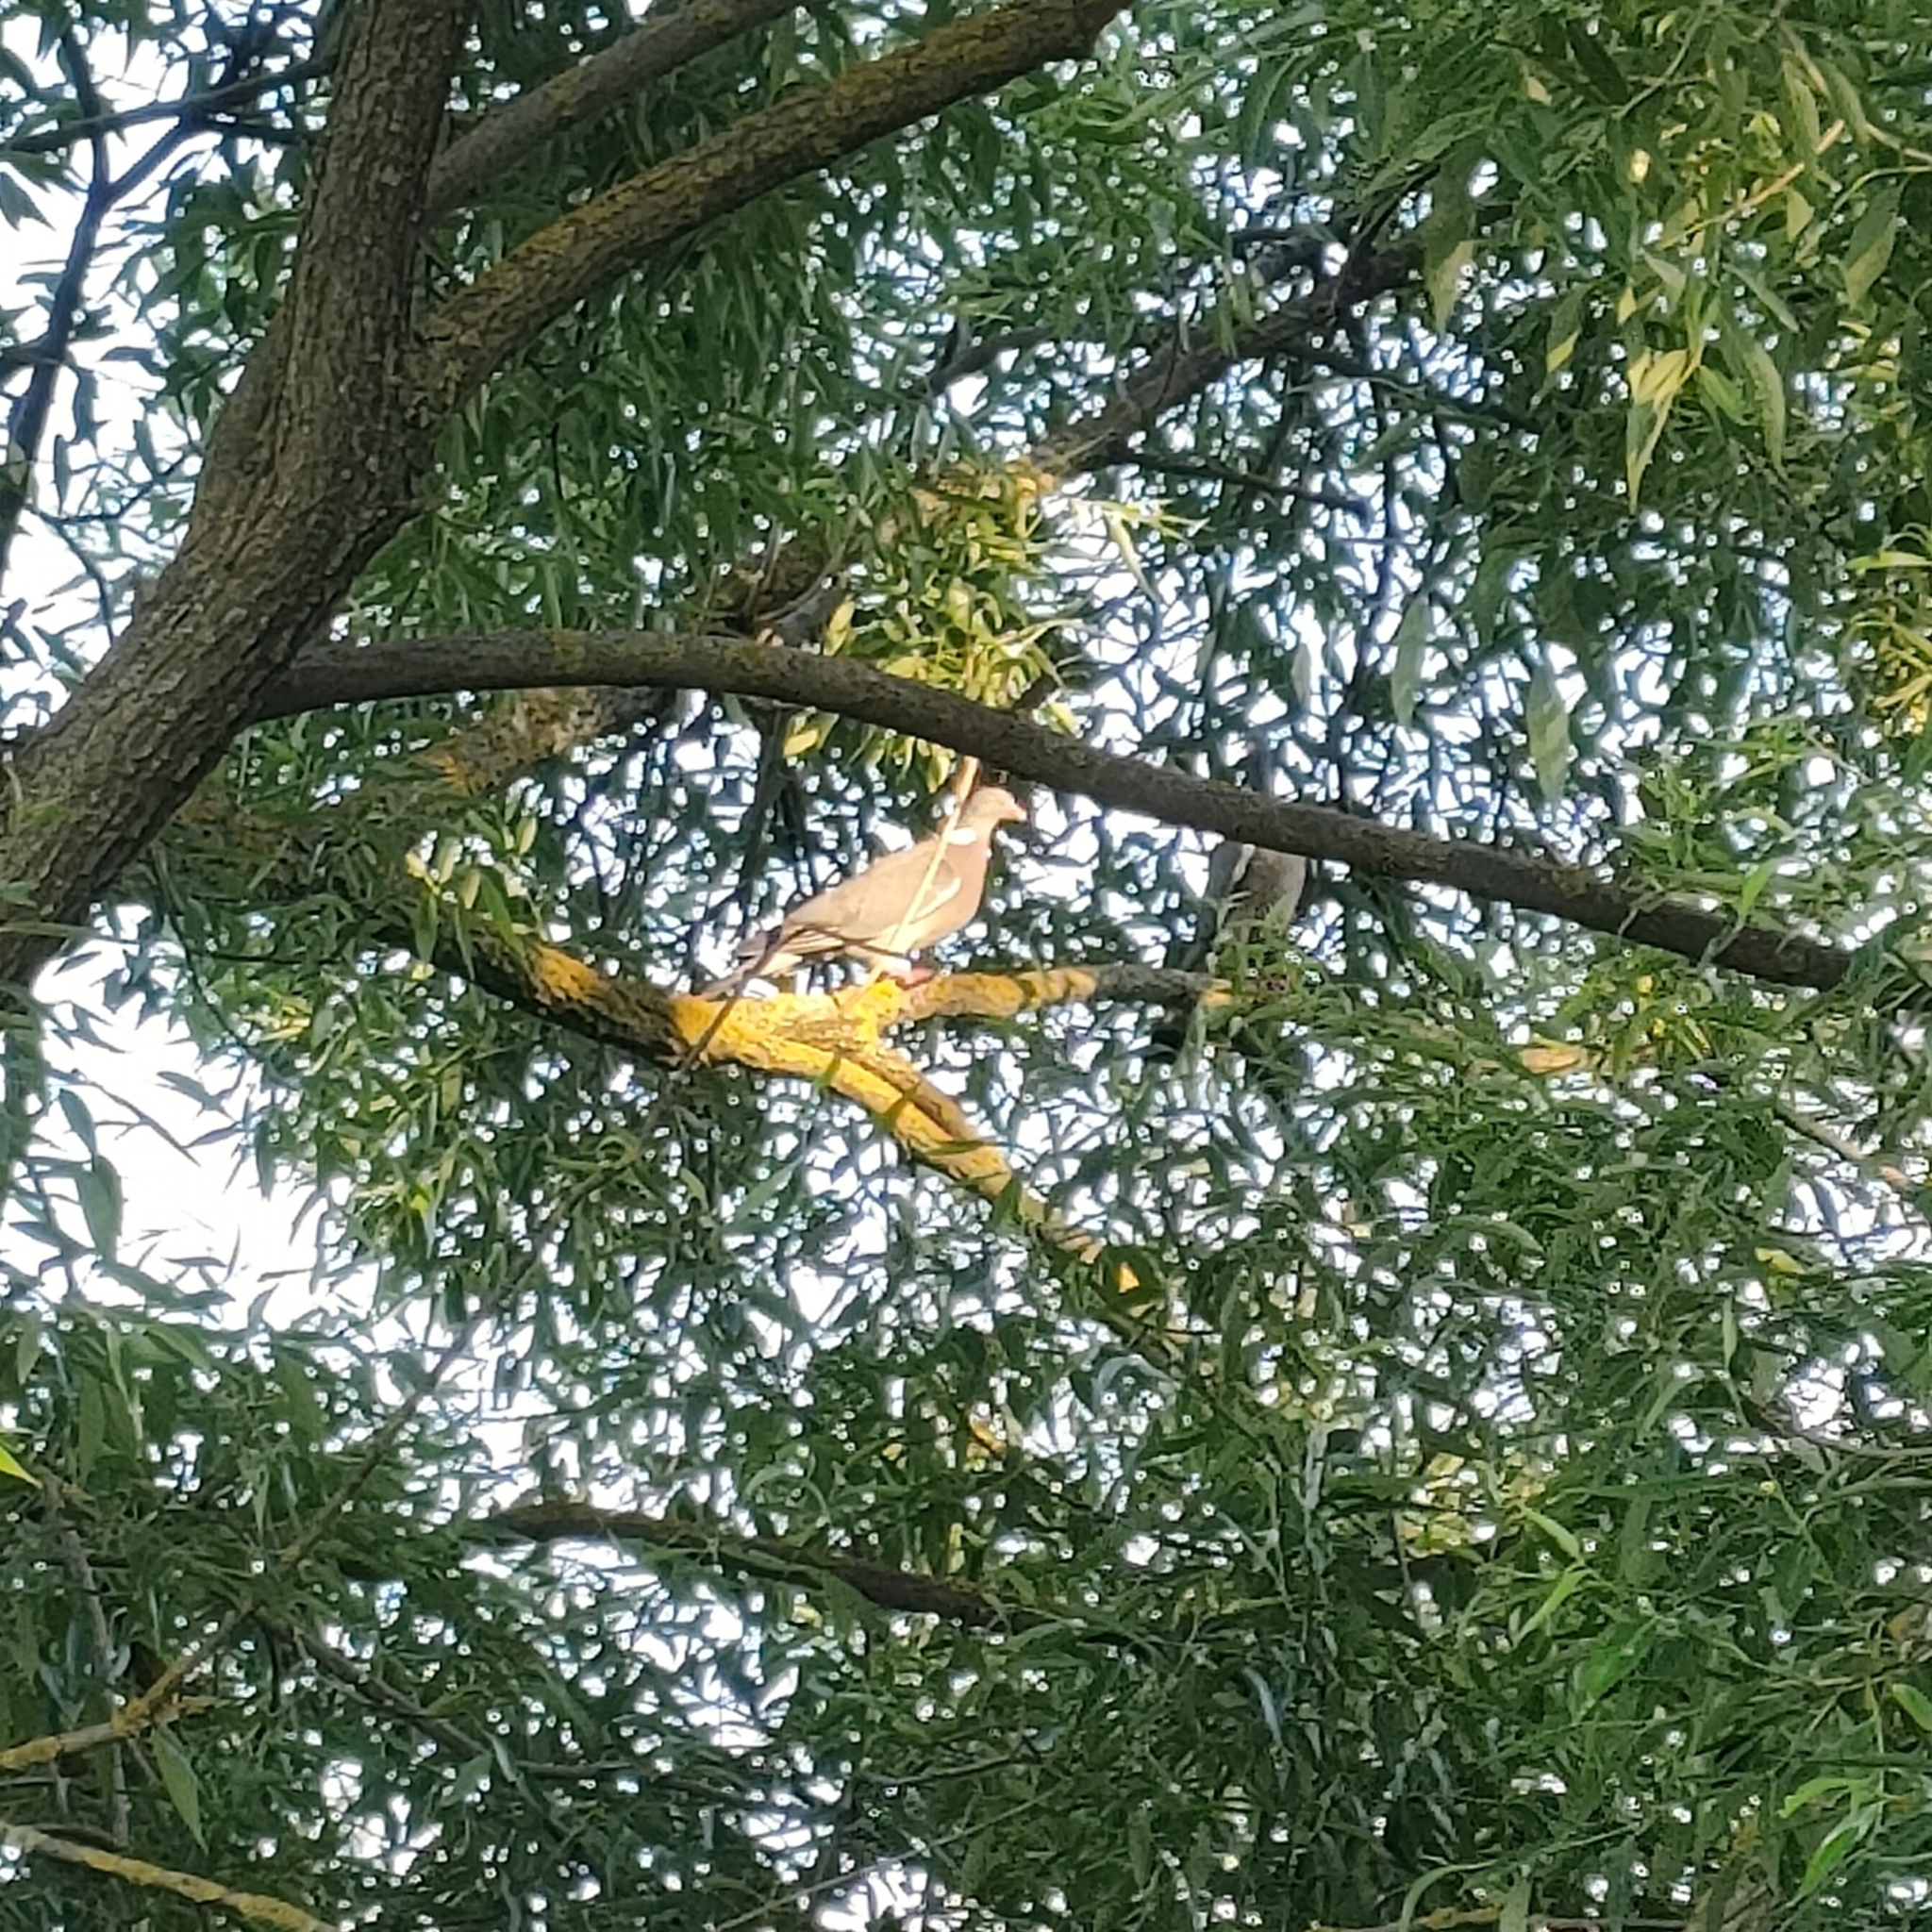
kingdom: Animalia
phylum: Chordata
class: Aves
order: Columbiformes
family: Columbidae
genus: Columba
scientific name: Columba palumbus
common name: Common wood pigeon
